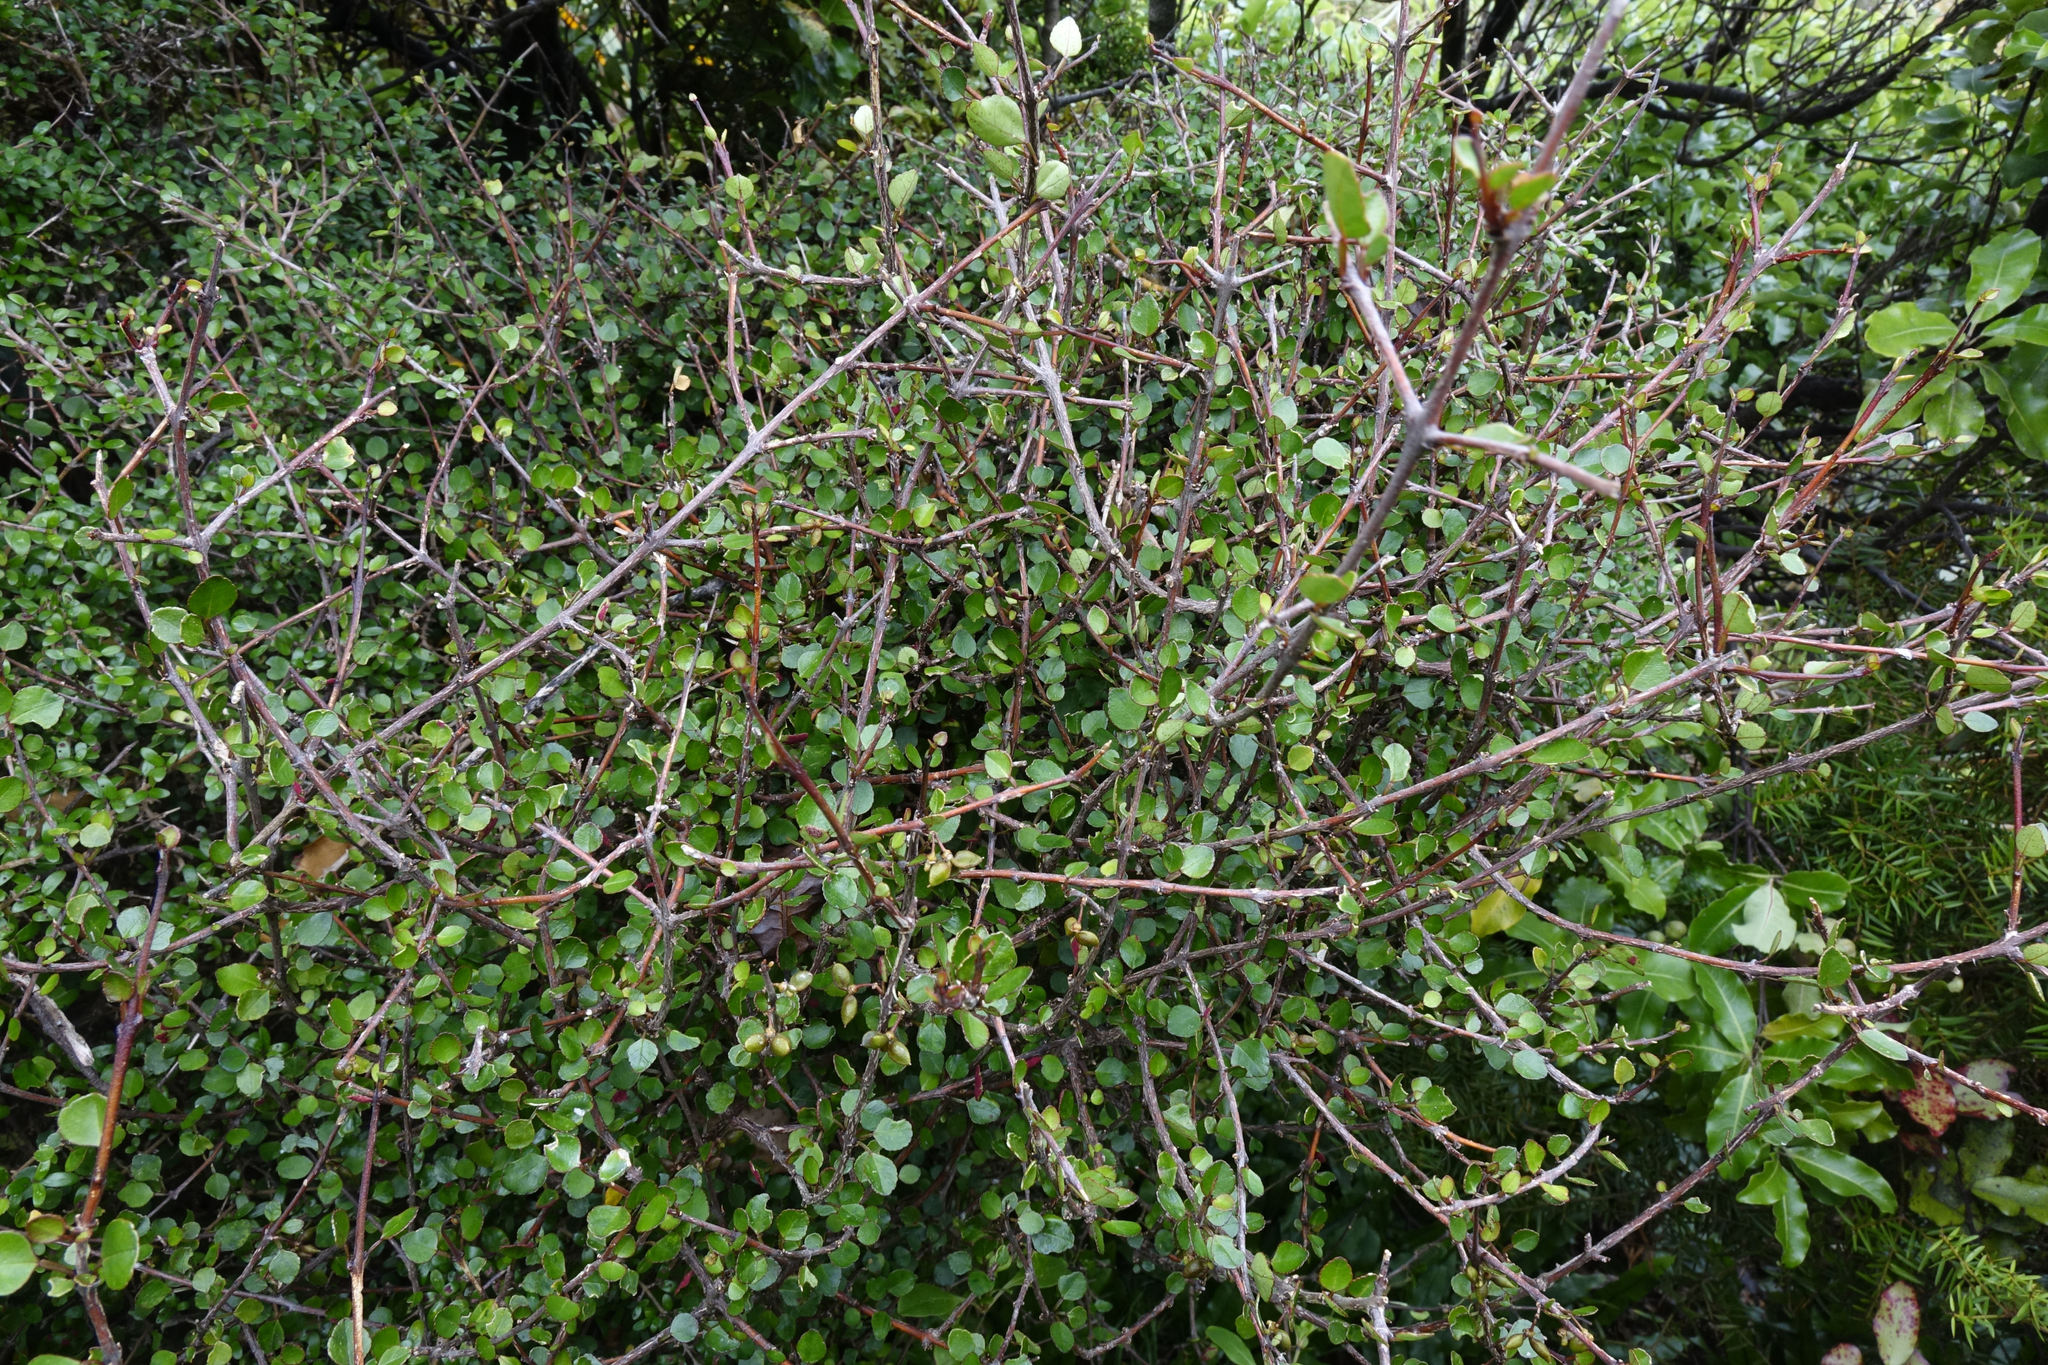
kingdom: Plantae
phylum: Tracheophyta
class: Magnoliopsida
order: Sapindales
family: Rutaceae
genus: Melicope
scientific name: Melicope simplex
